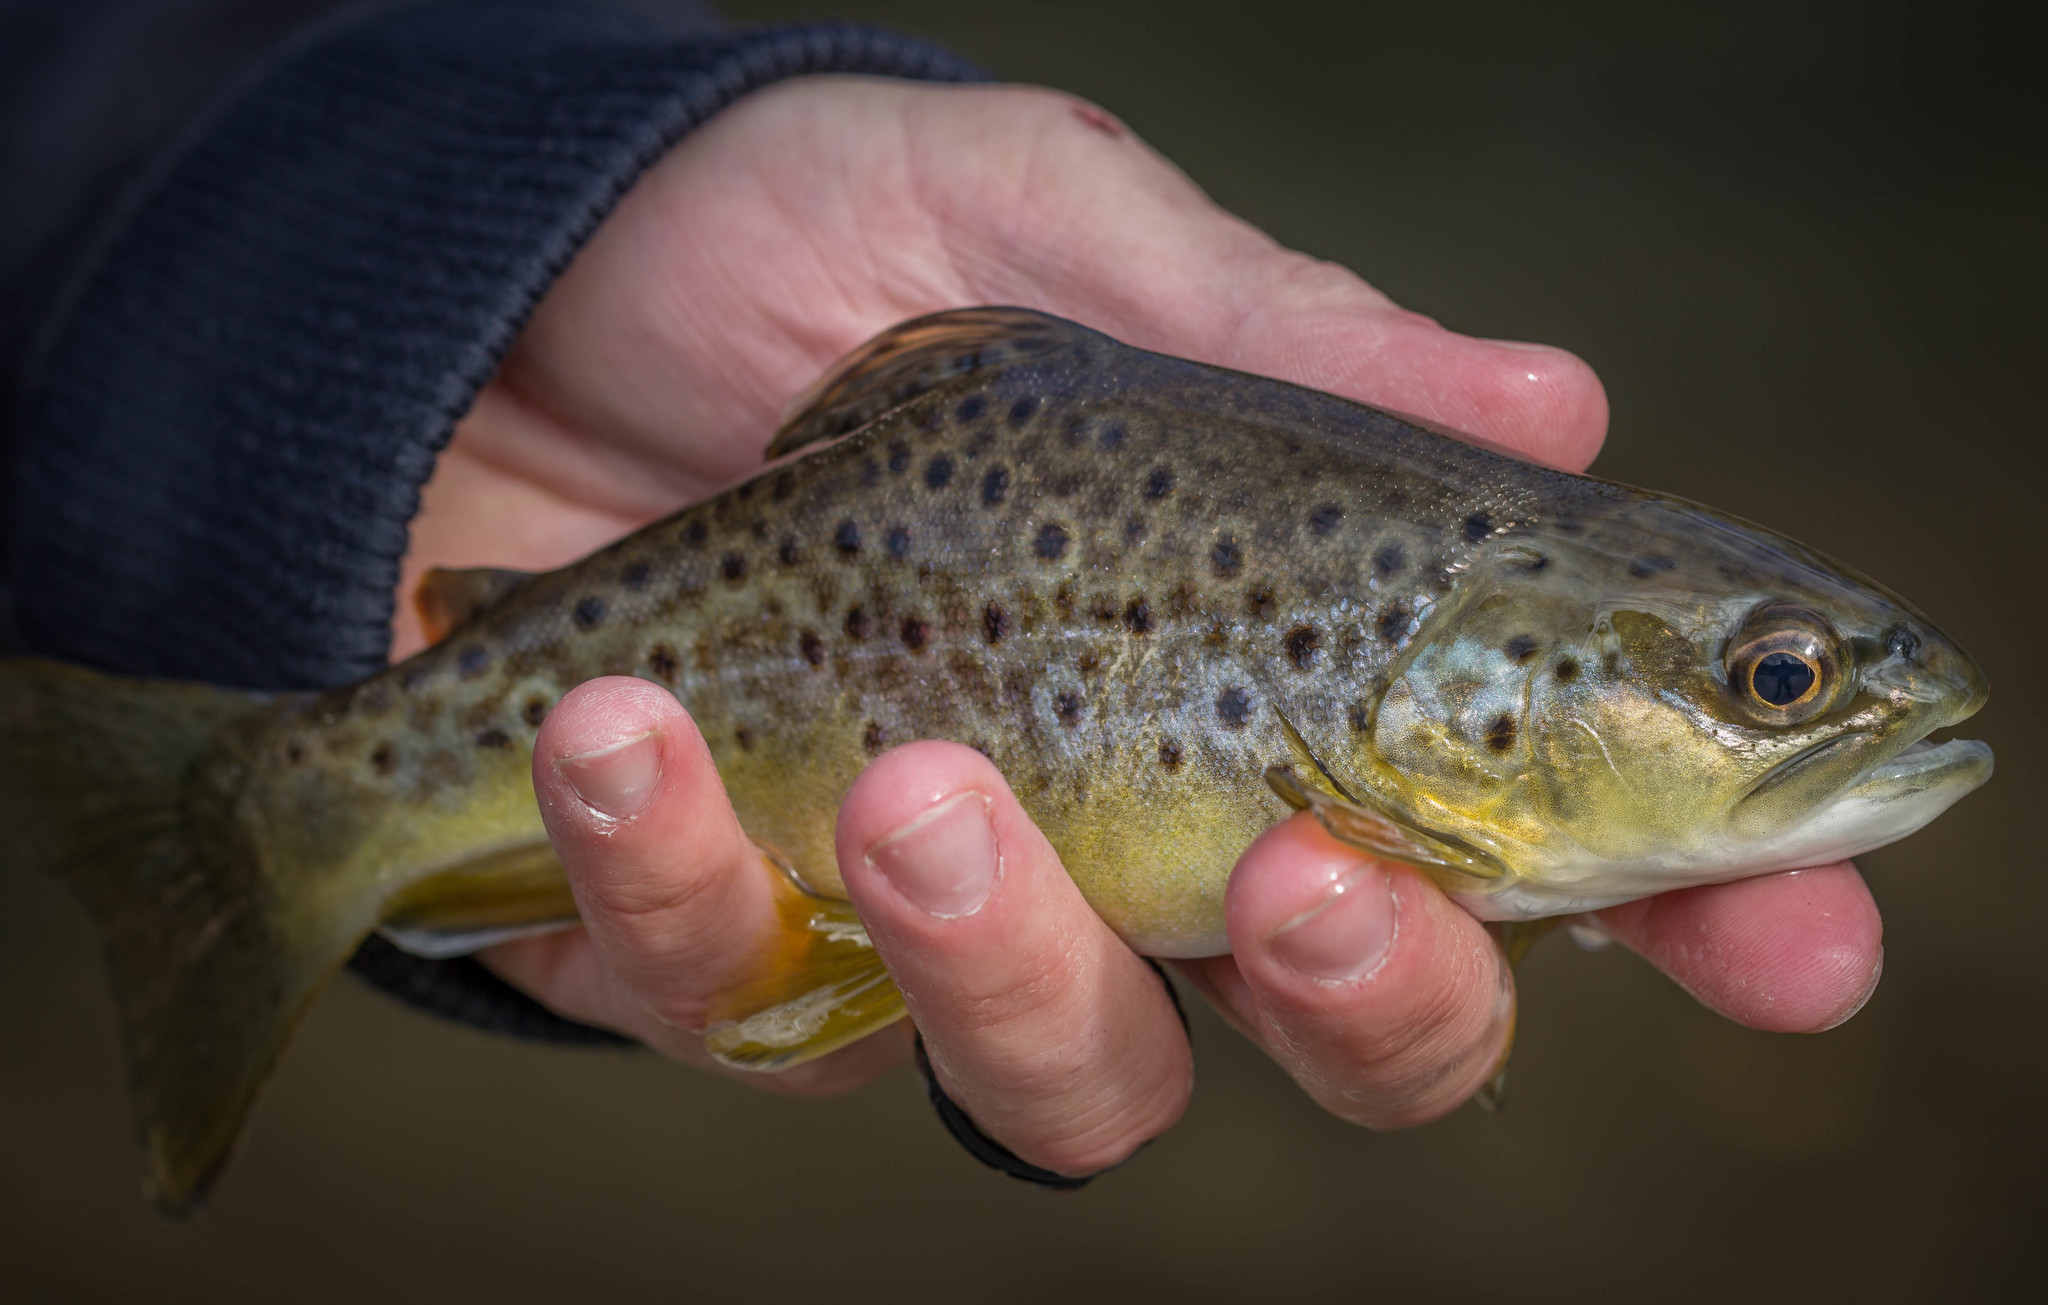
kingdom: Animalia
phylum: Chordata
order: Salmoniformes
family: Salmonidae
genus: Salmo
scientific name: Salmo trutta
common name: Brown trout
